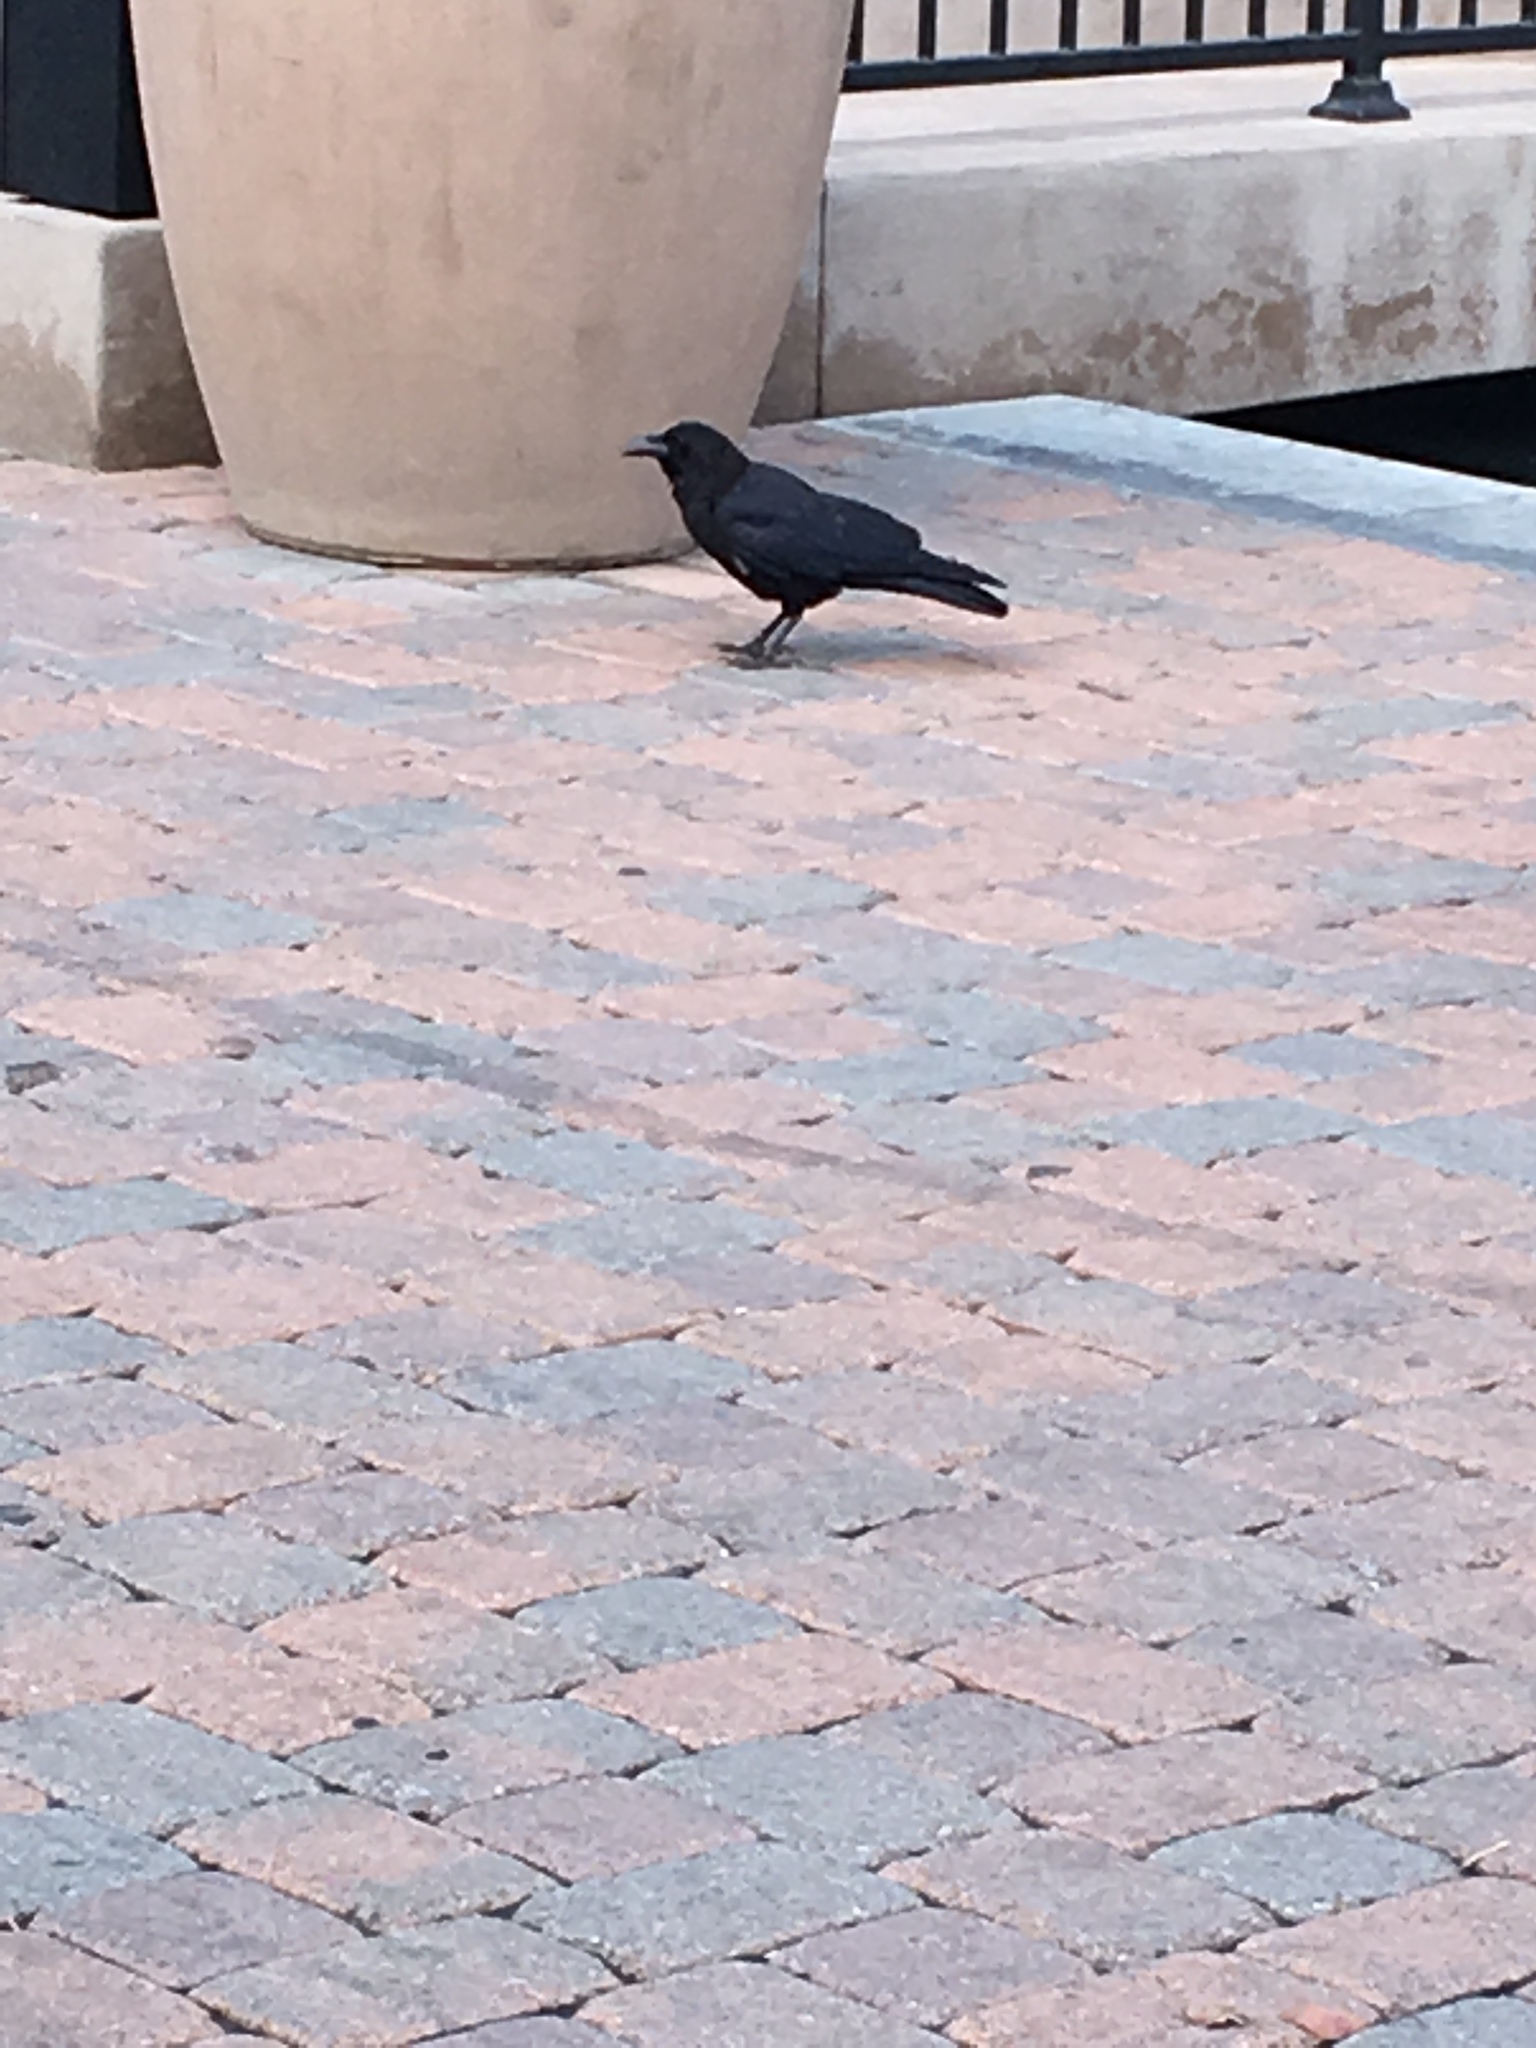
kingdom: Animalia
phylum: Chordata
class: Aves
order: Passeriformes
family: Corvidae
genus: Corvus
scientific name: Corvus brachyrhynchos
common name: American crow
